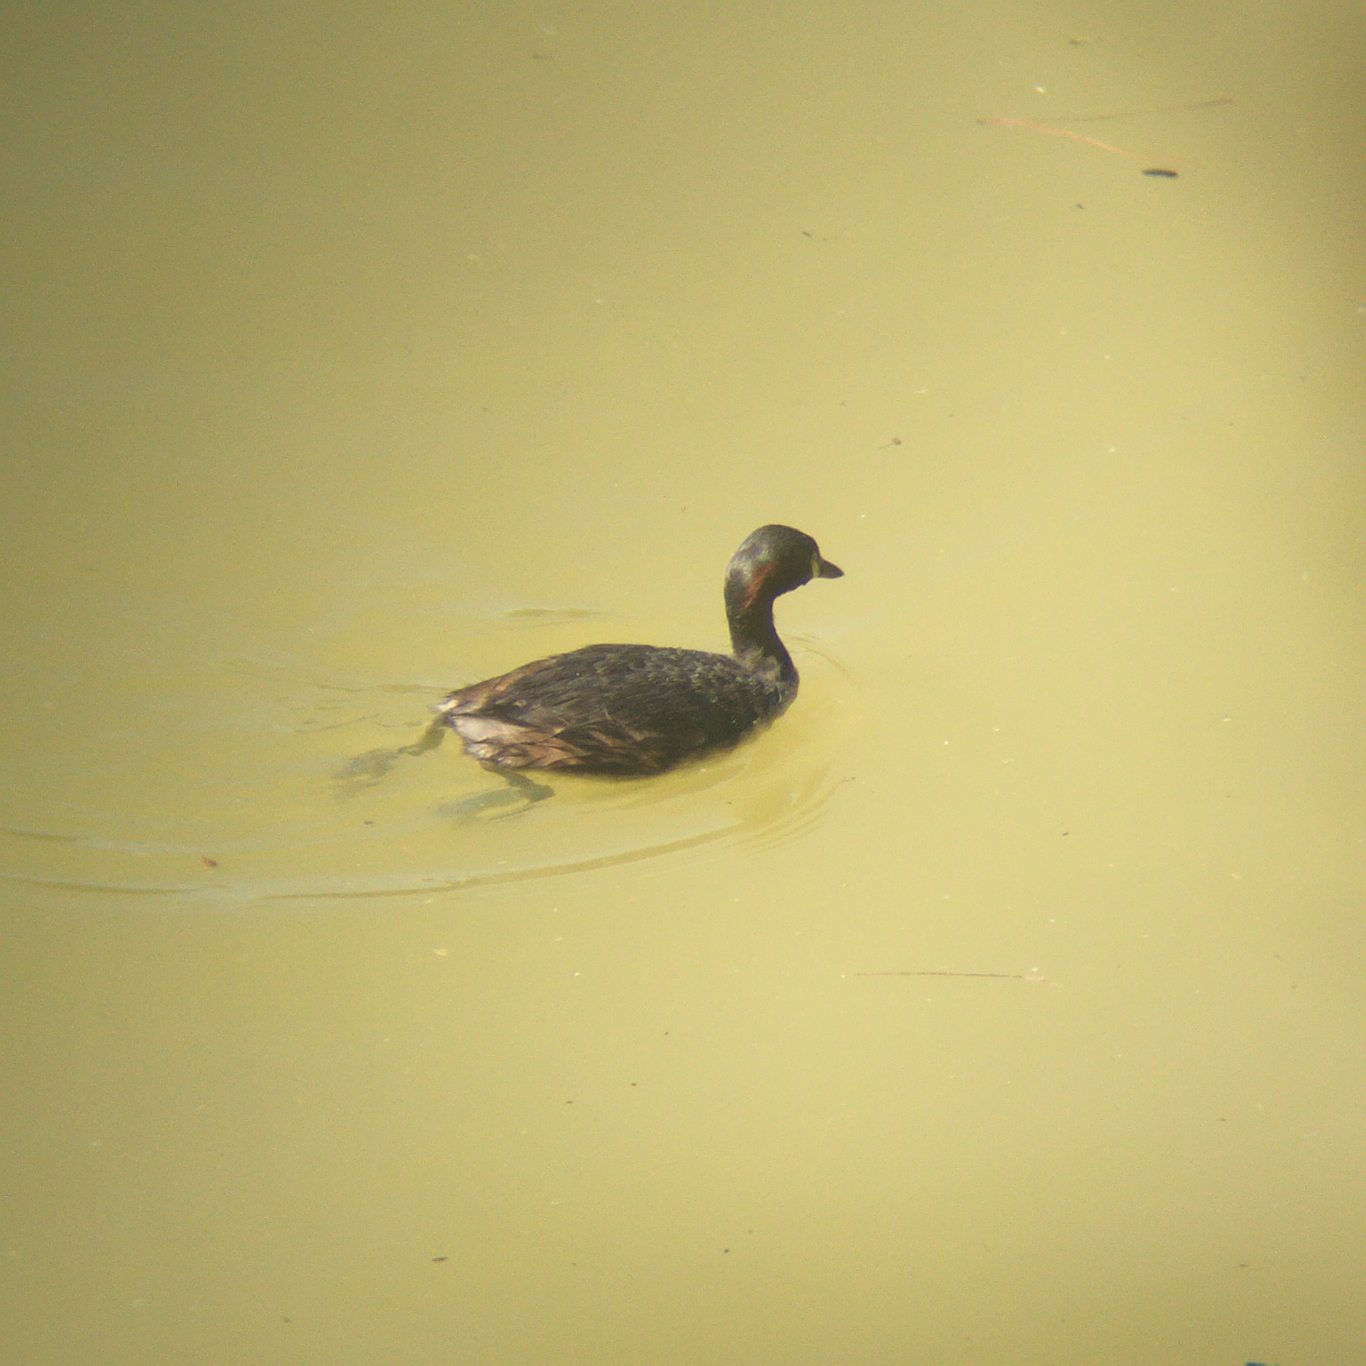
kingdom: Animalia
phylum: Chordata
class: Aves
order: Podicipediformes
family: Podicipedidae
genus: Tachybaptus
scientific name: Tachybaptus novaehollandiae
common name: Australasian grebe
